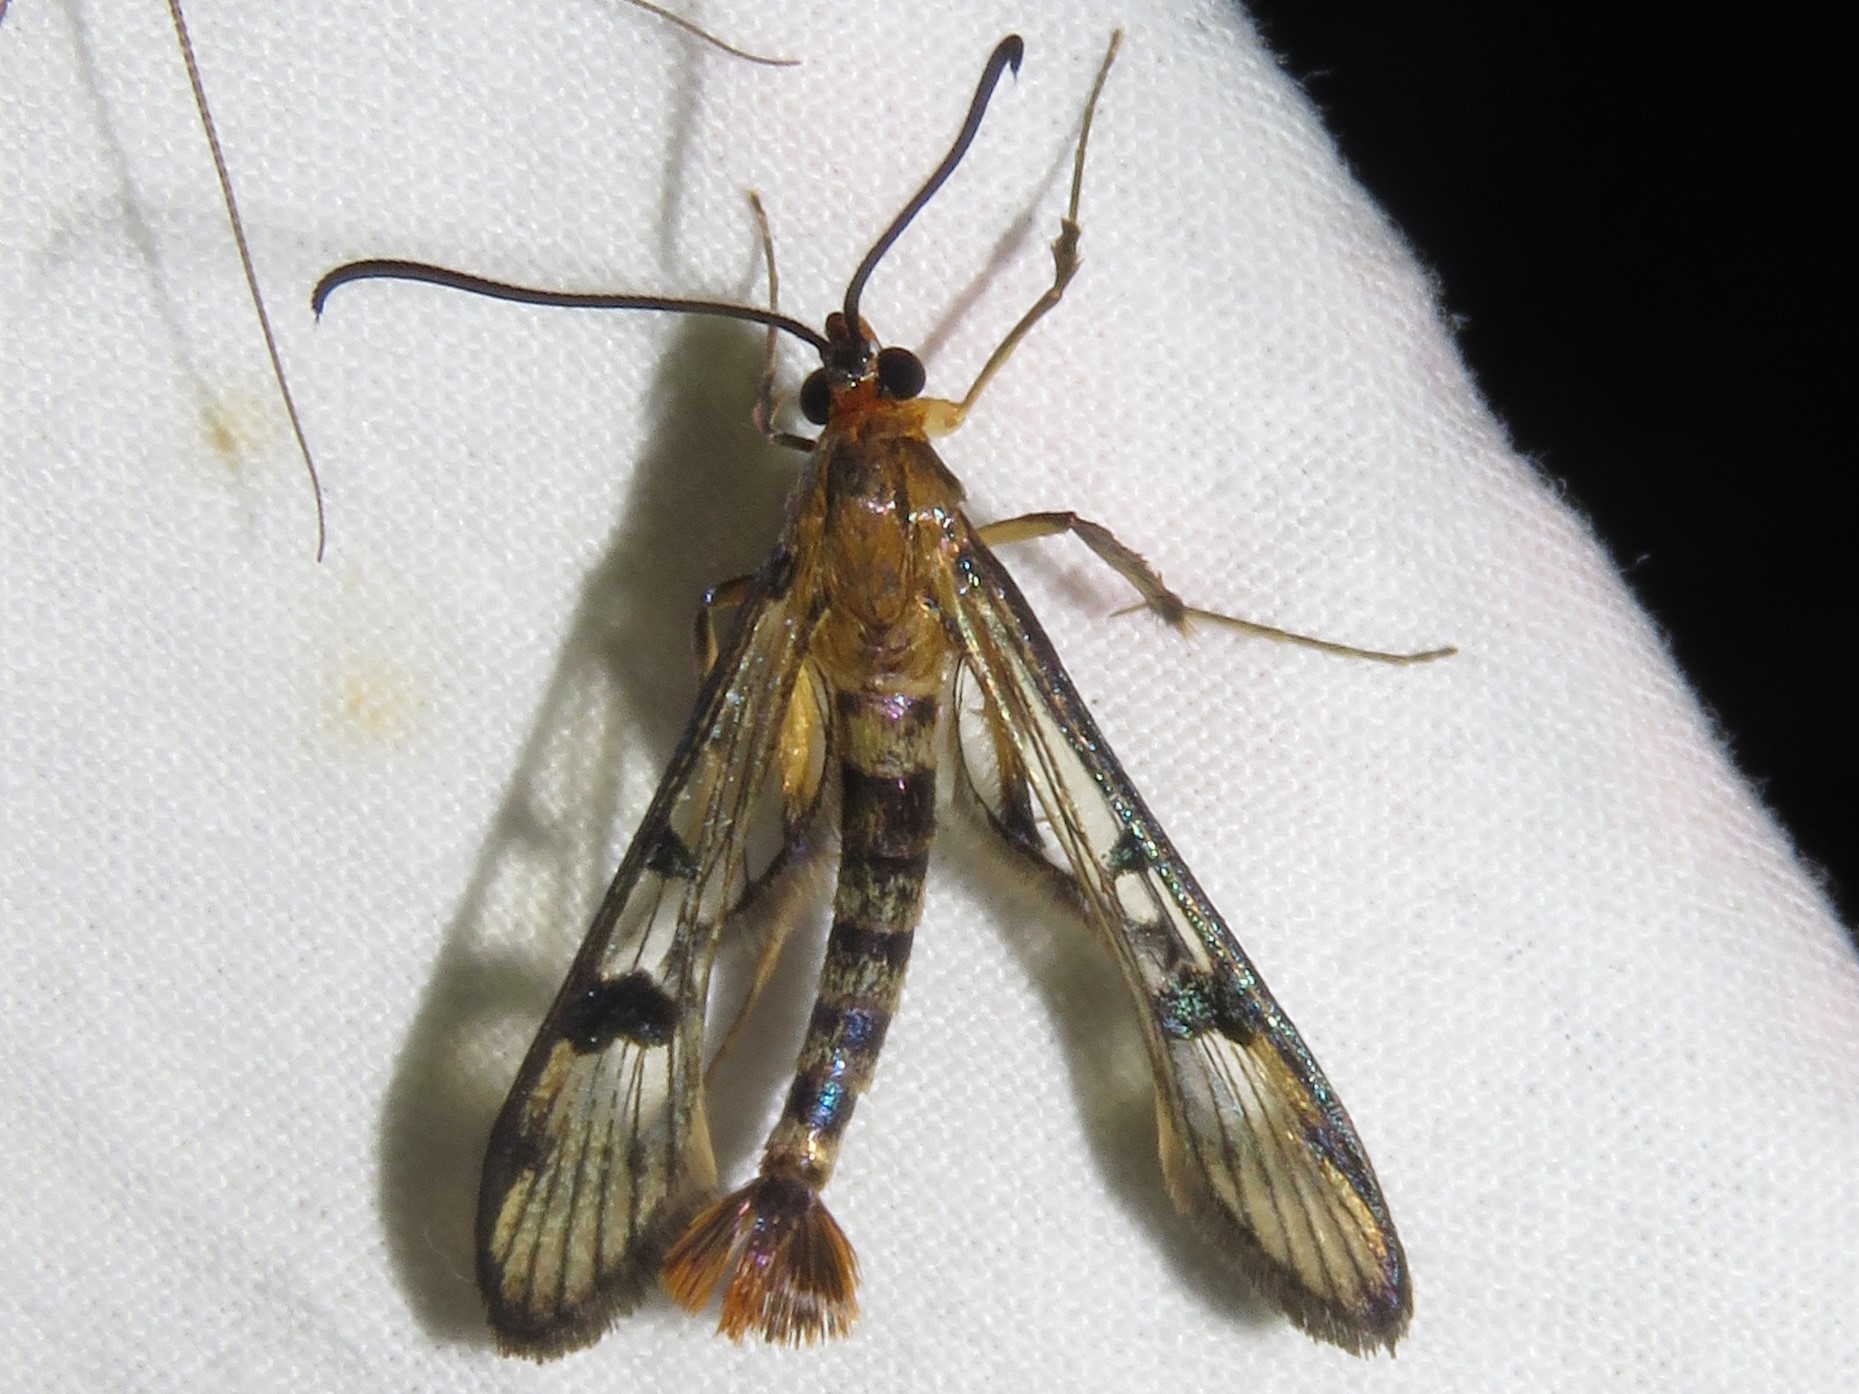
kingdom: Animalia
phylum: Arthropoda
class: Insecta
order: Lepidoptera
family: Sesiidae
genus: Synanthedon
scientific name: Synanthedon acerni
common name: Maple callus borer moth
